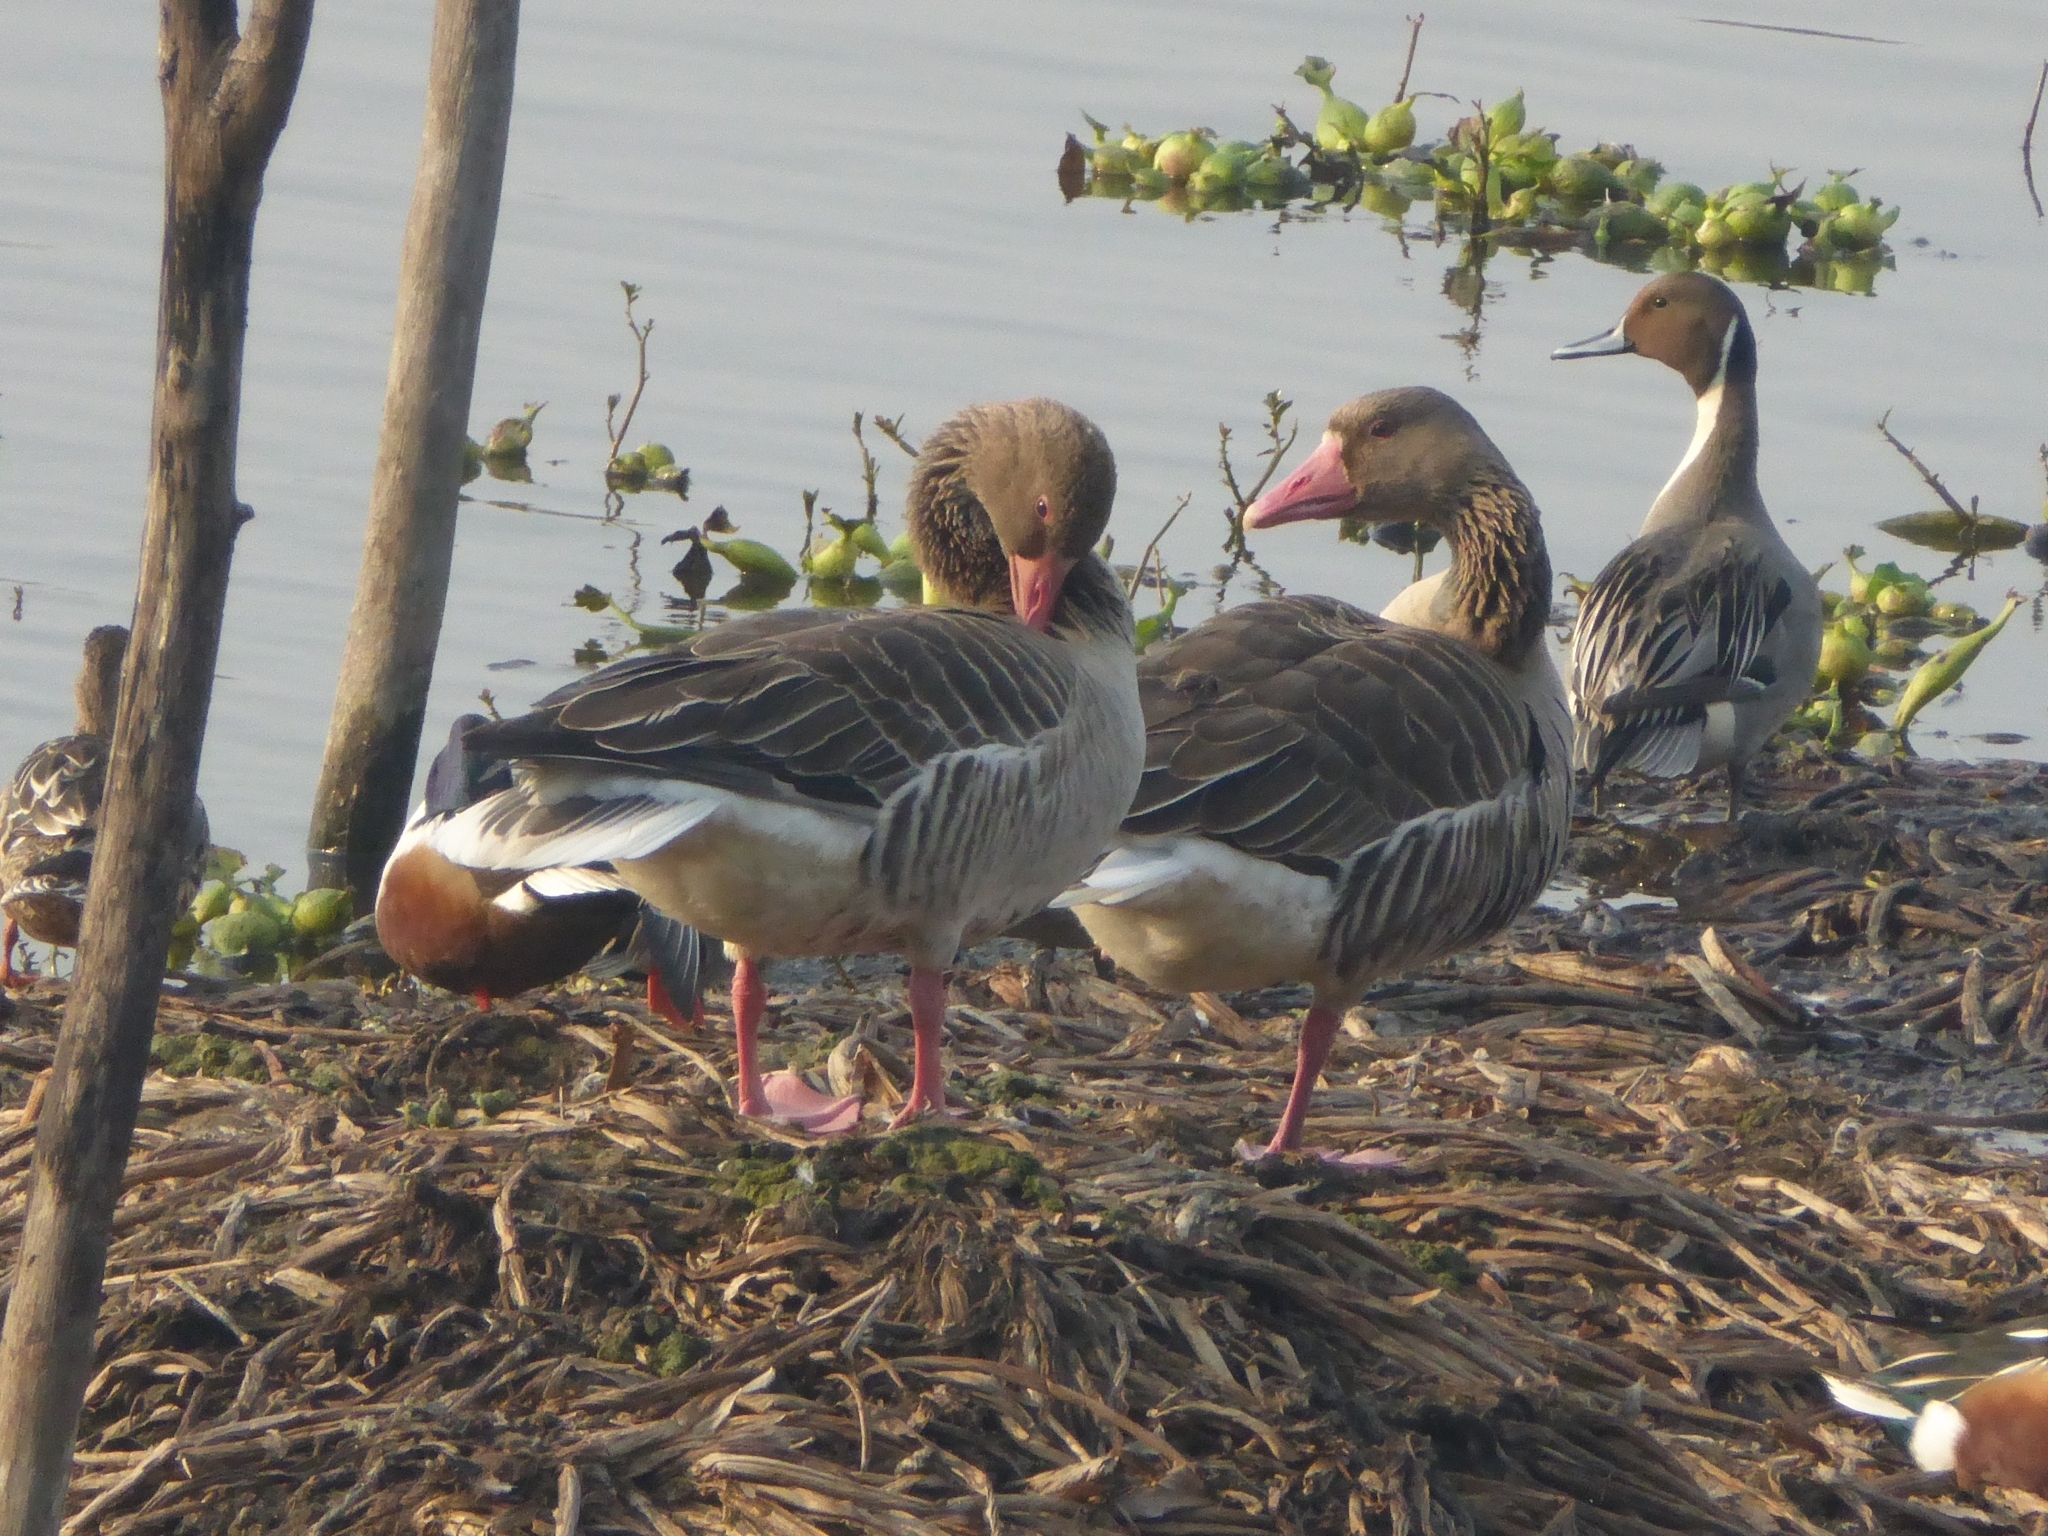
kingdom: Animalia
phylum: Chordata
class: Aves
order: Anseriformes
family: Anatidae
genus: Anser
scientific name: Anser anser
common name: Greylag goose
